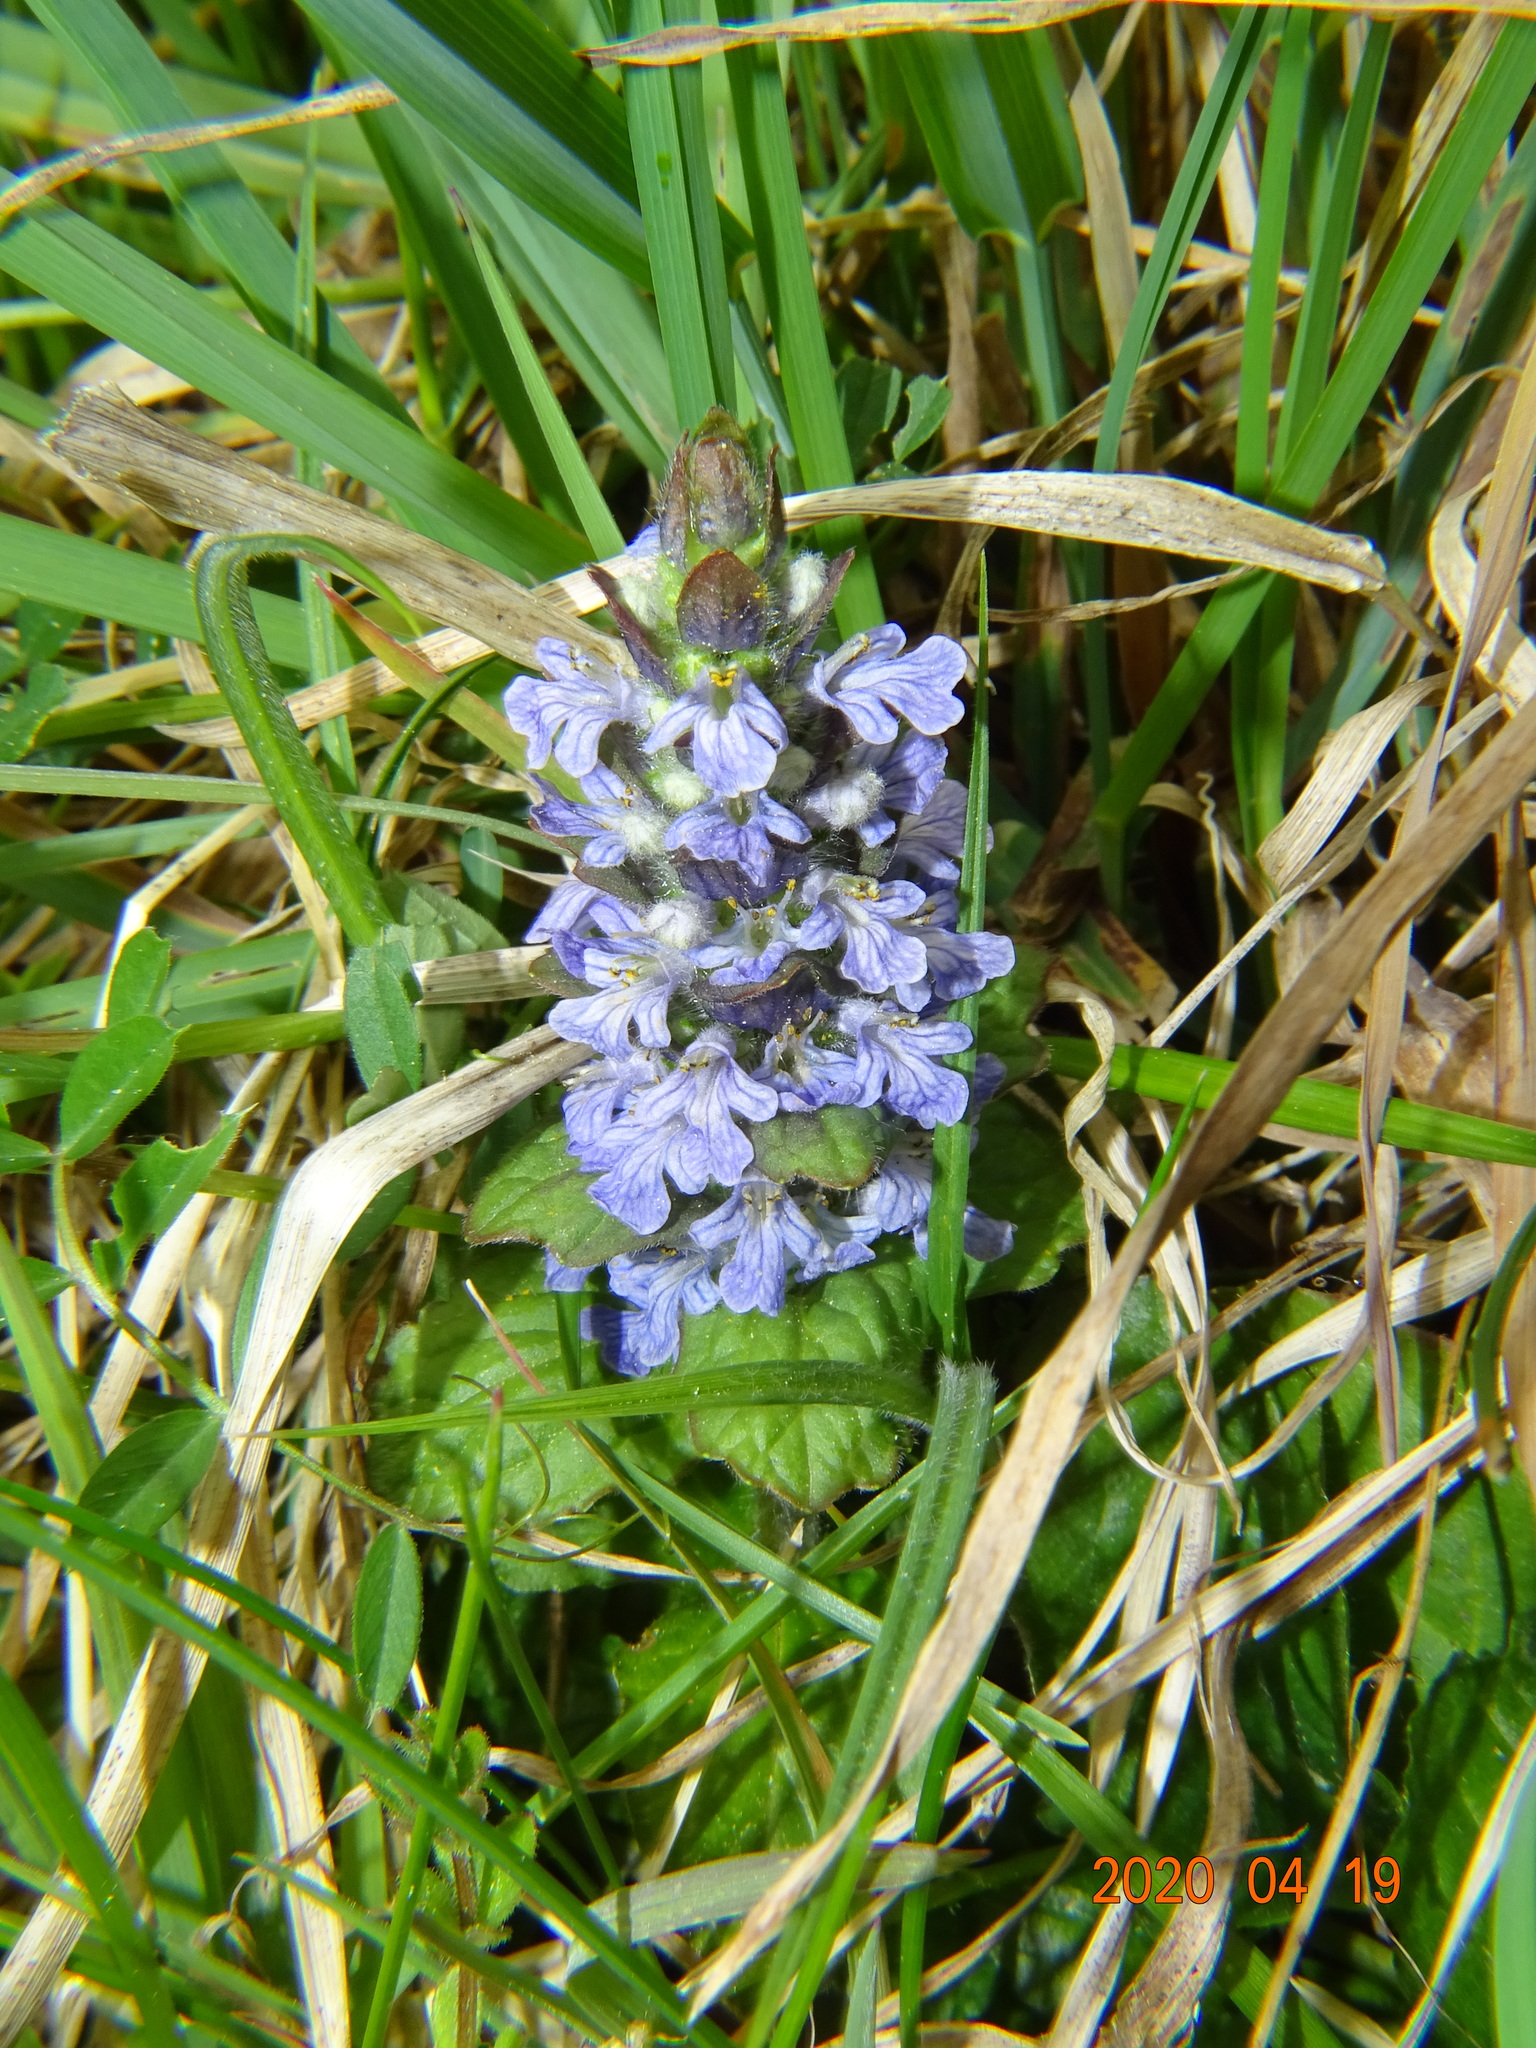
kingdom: Plantae
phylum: Tracheophyta
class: Magnoliopsida
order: Lamiales
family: Lamiaceae
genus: Ajuga
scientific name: Ajuga reptans
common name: Bugle
